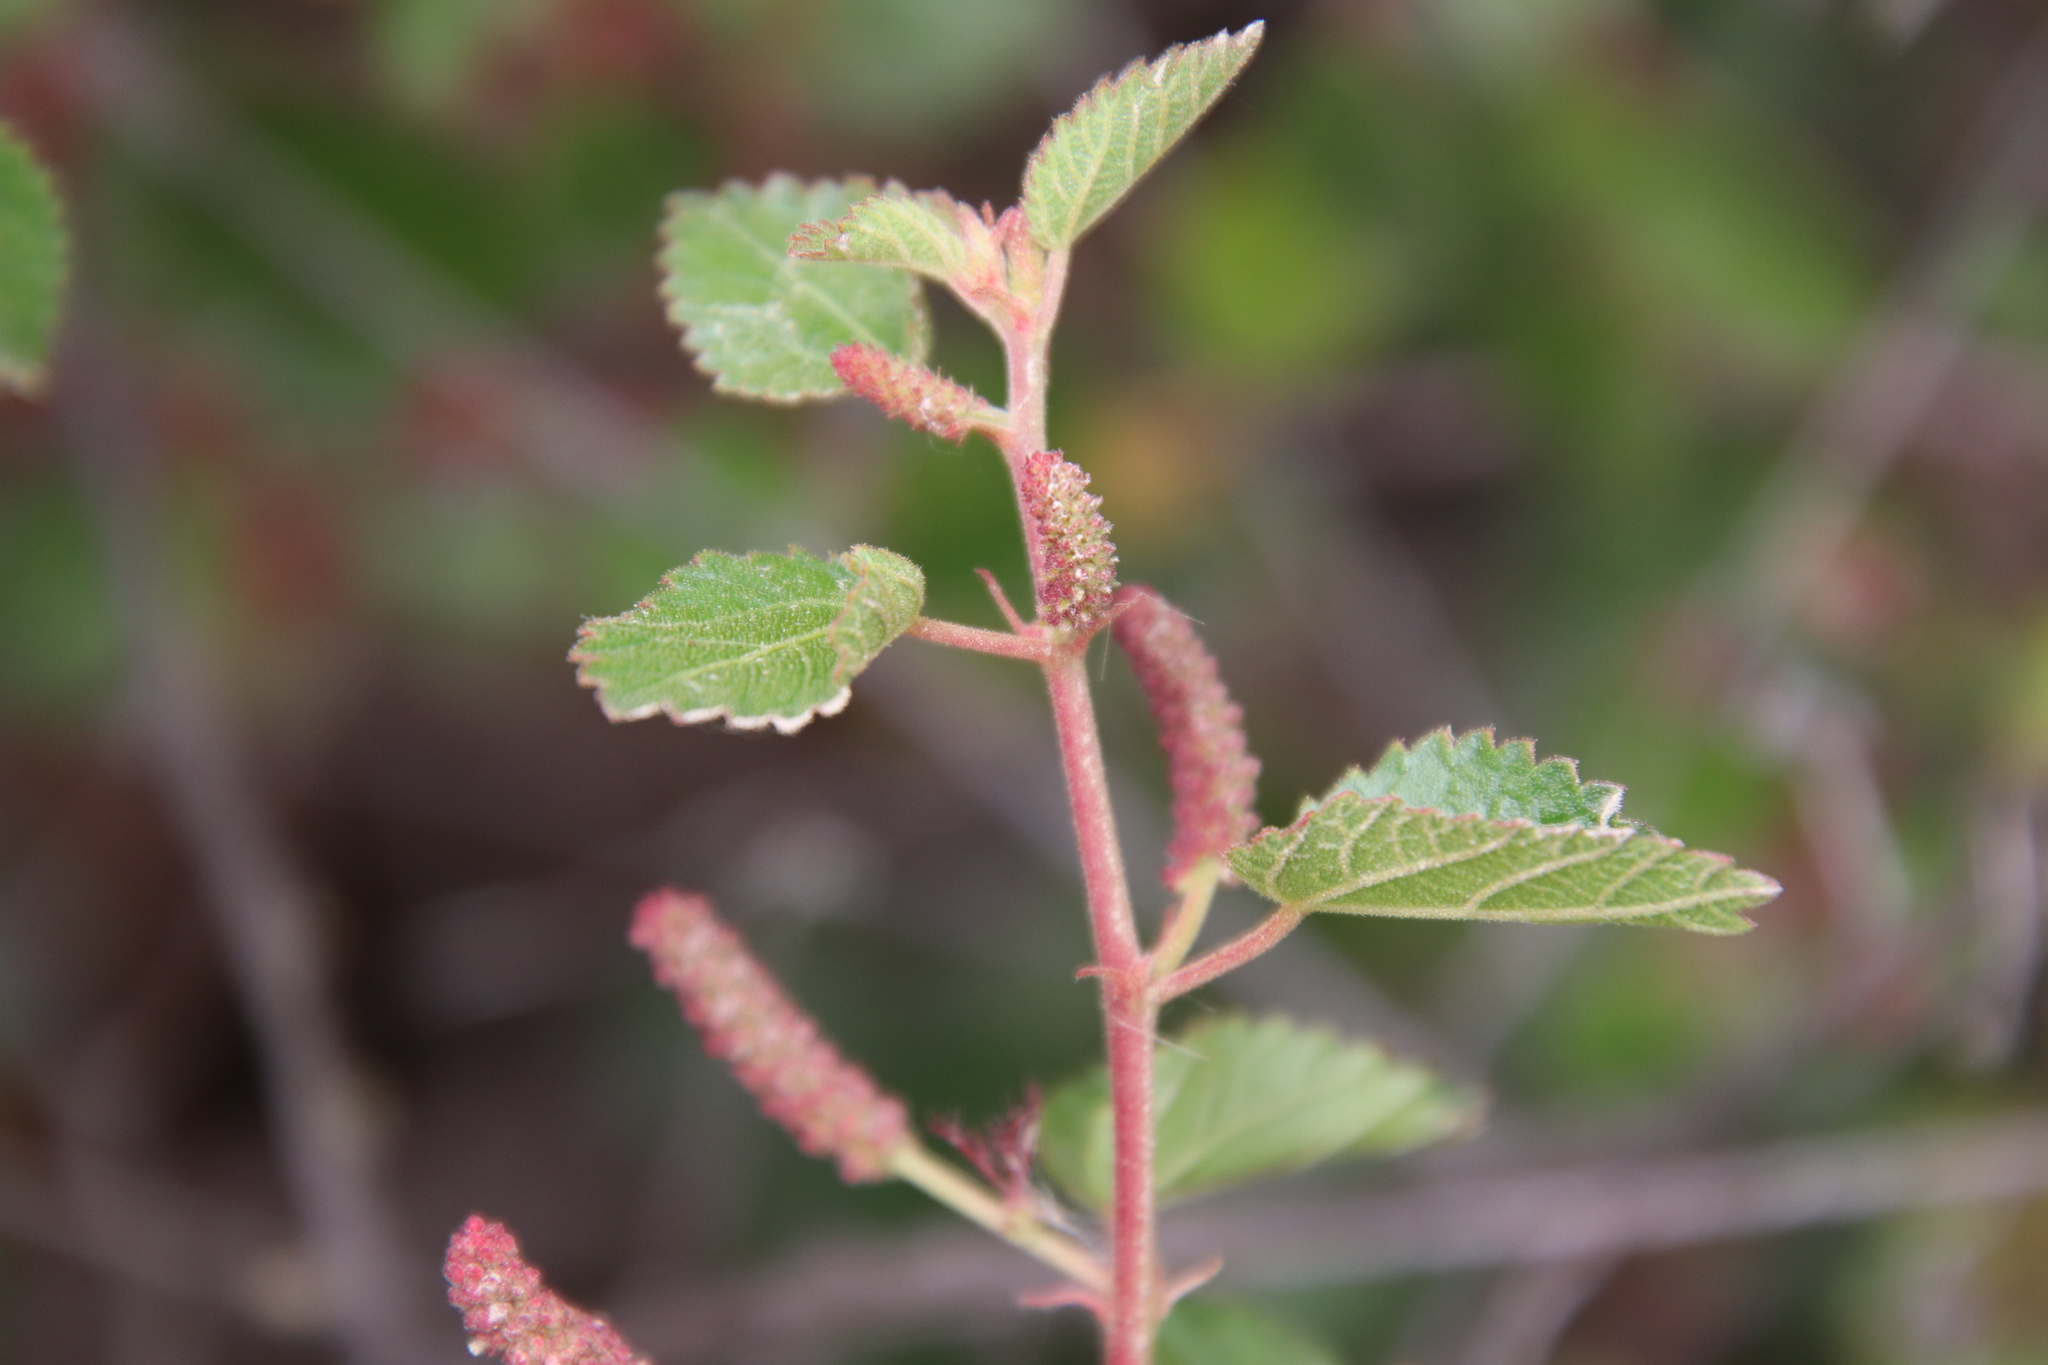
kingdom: Plantae
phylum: Tracheophyta
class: Magnoliopsida
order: Malpighiales
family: Euphorbiaceae
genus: Acalypha
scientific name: Acalypha californica
